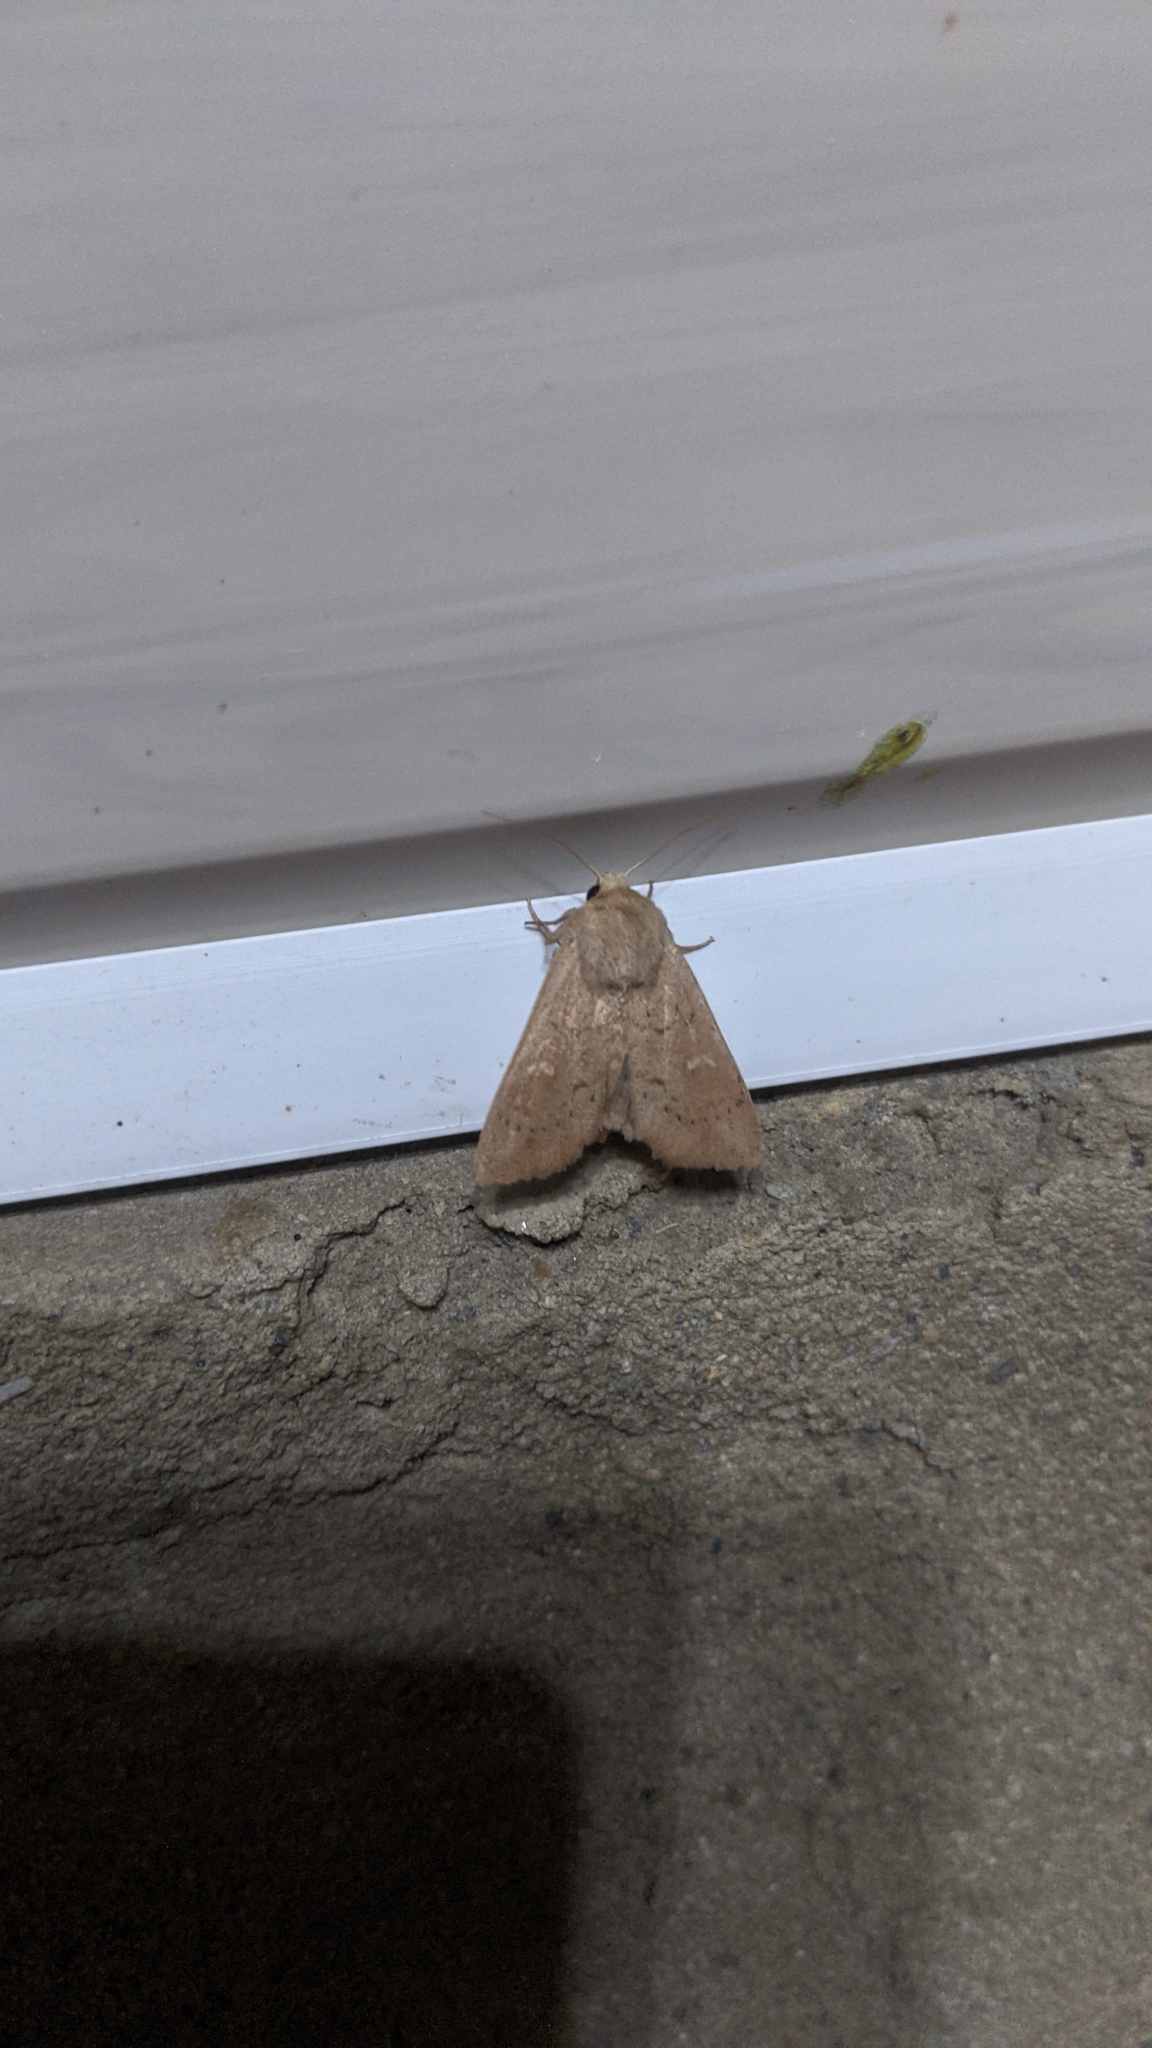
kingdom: Animalia
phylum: Arthropoda
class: Insecta
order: Lepidoptera
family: Noctuidae
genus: Mythimna
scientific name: Mythimna ferrago
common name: Clay
